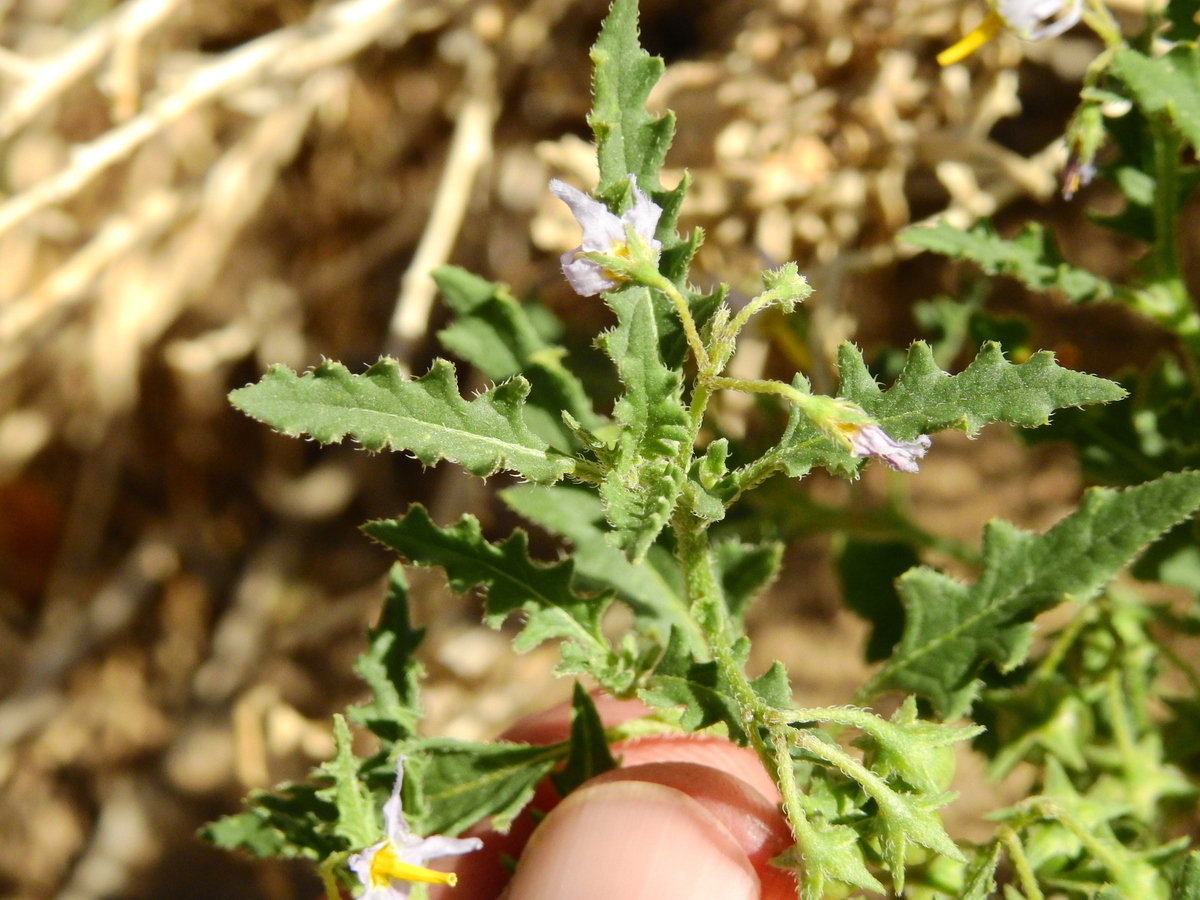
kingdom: Plantae
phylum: Tracheophyta
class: Magnoliopsida
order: Solanales
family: Solanaceae
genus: Solanum
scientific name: Solanum triflorum
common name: Small nightshade
